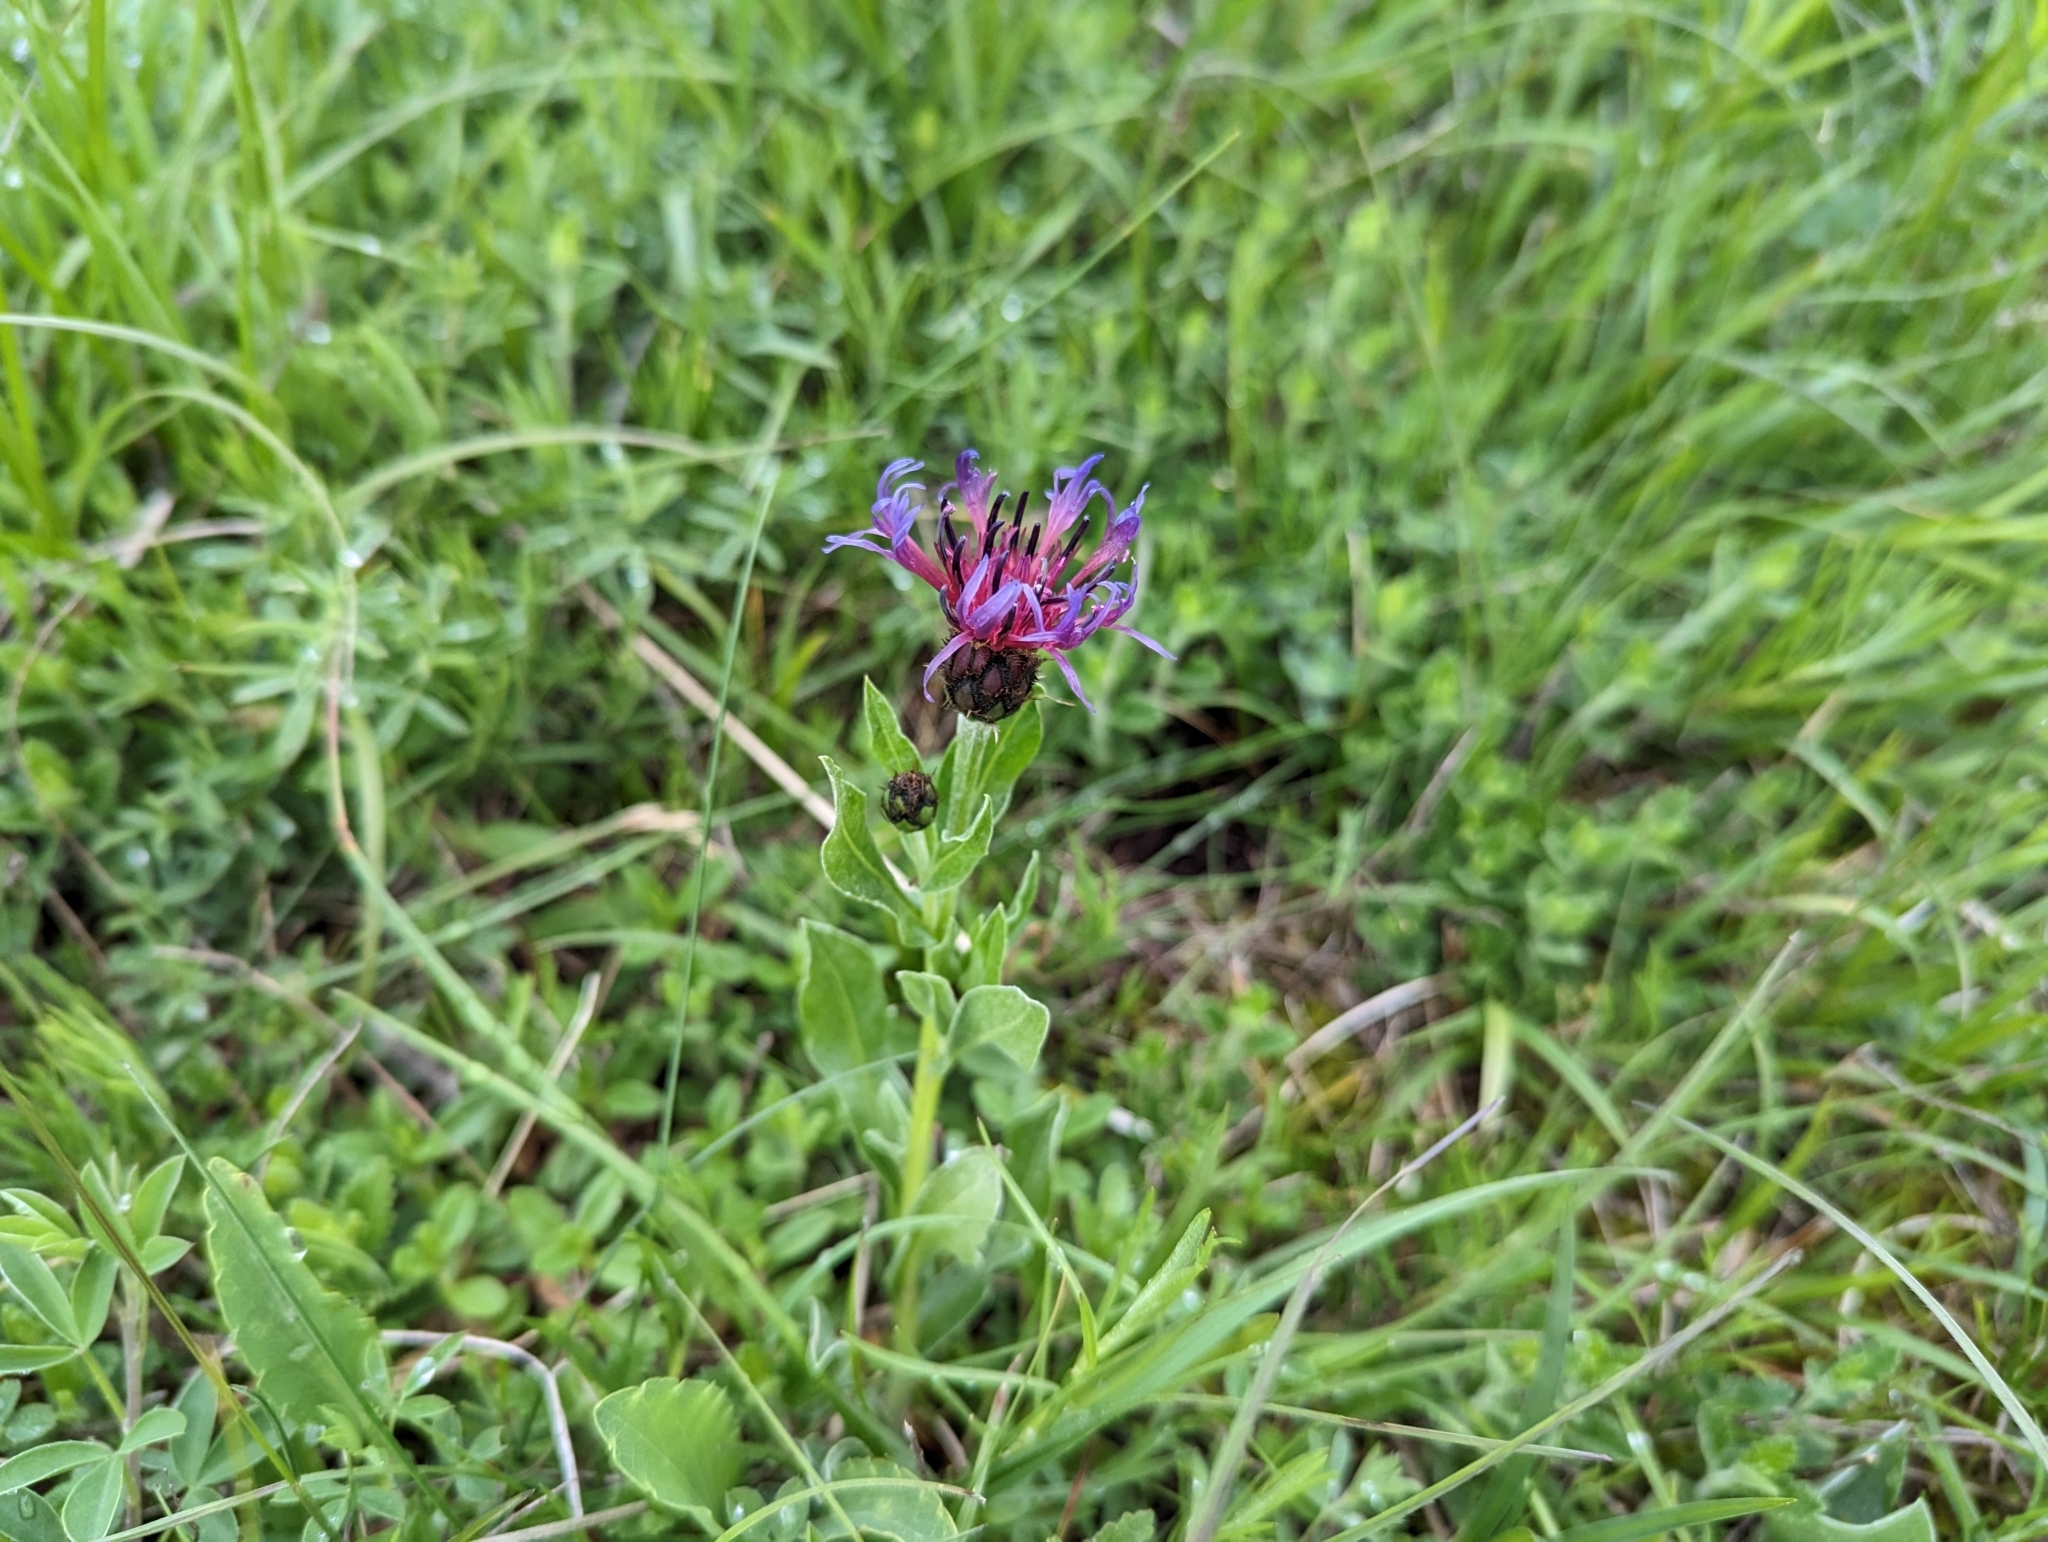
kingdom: Plantae
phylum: Tracheophyta
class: Magnoliopsida
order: Asterales
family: Asteraceae
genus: Centaurea
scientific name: Centaurea triumfettii
